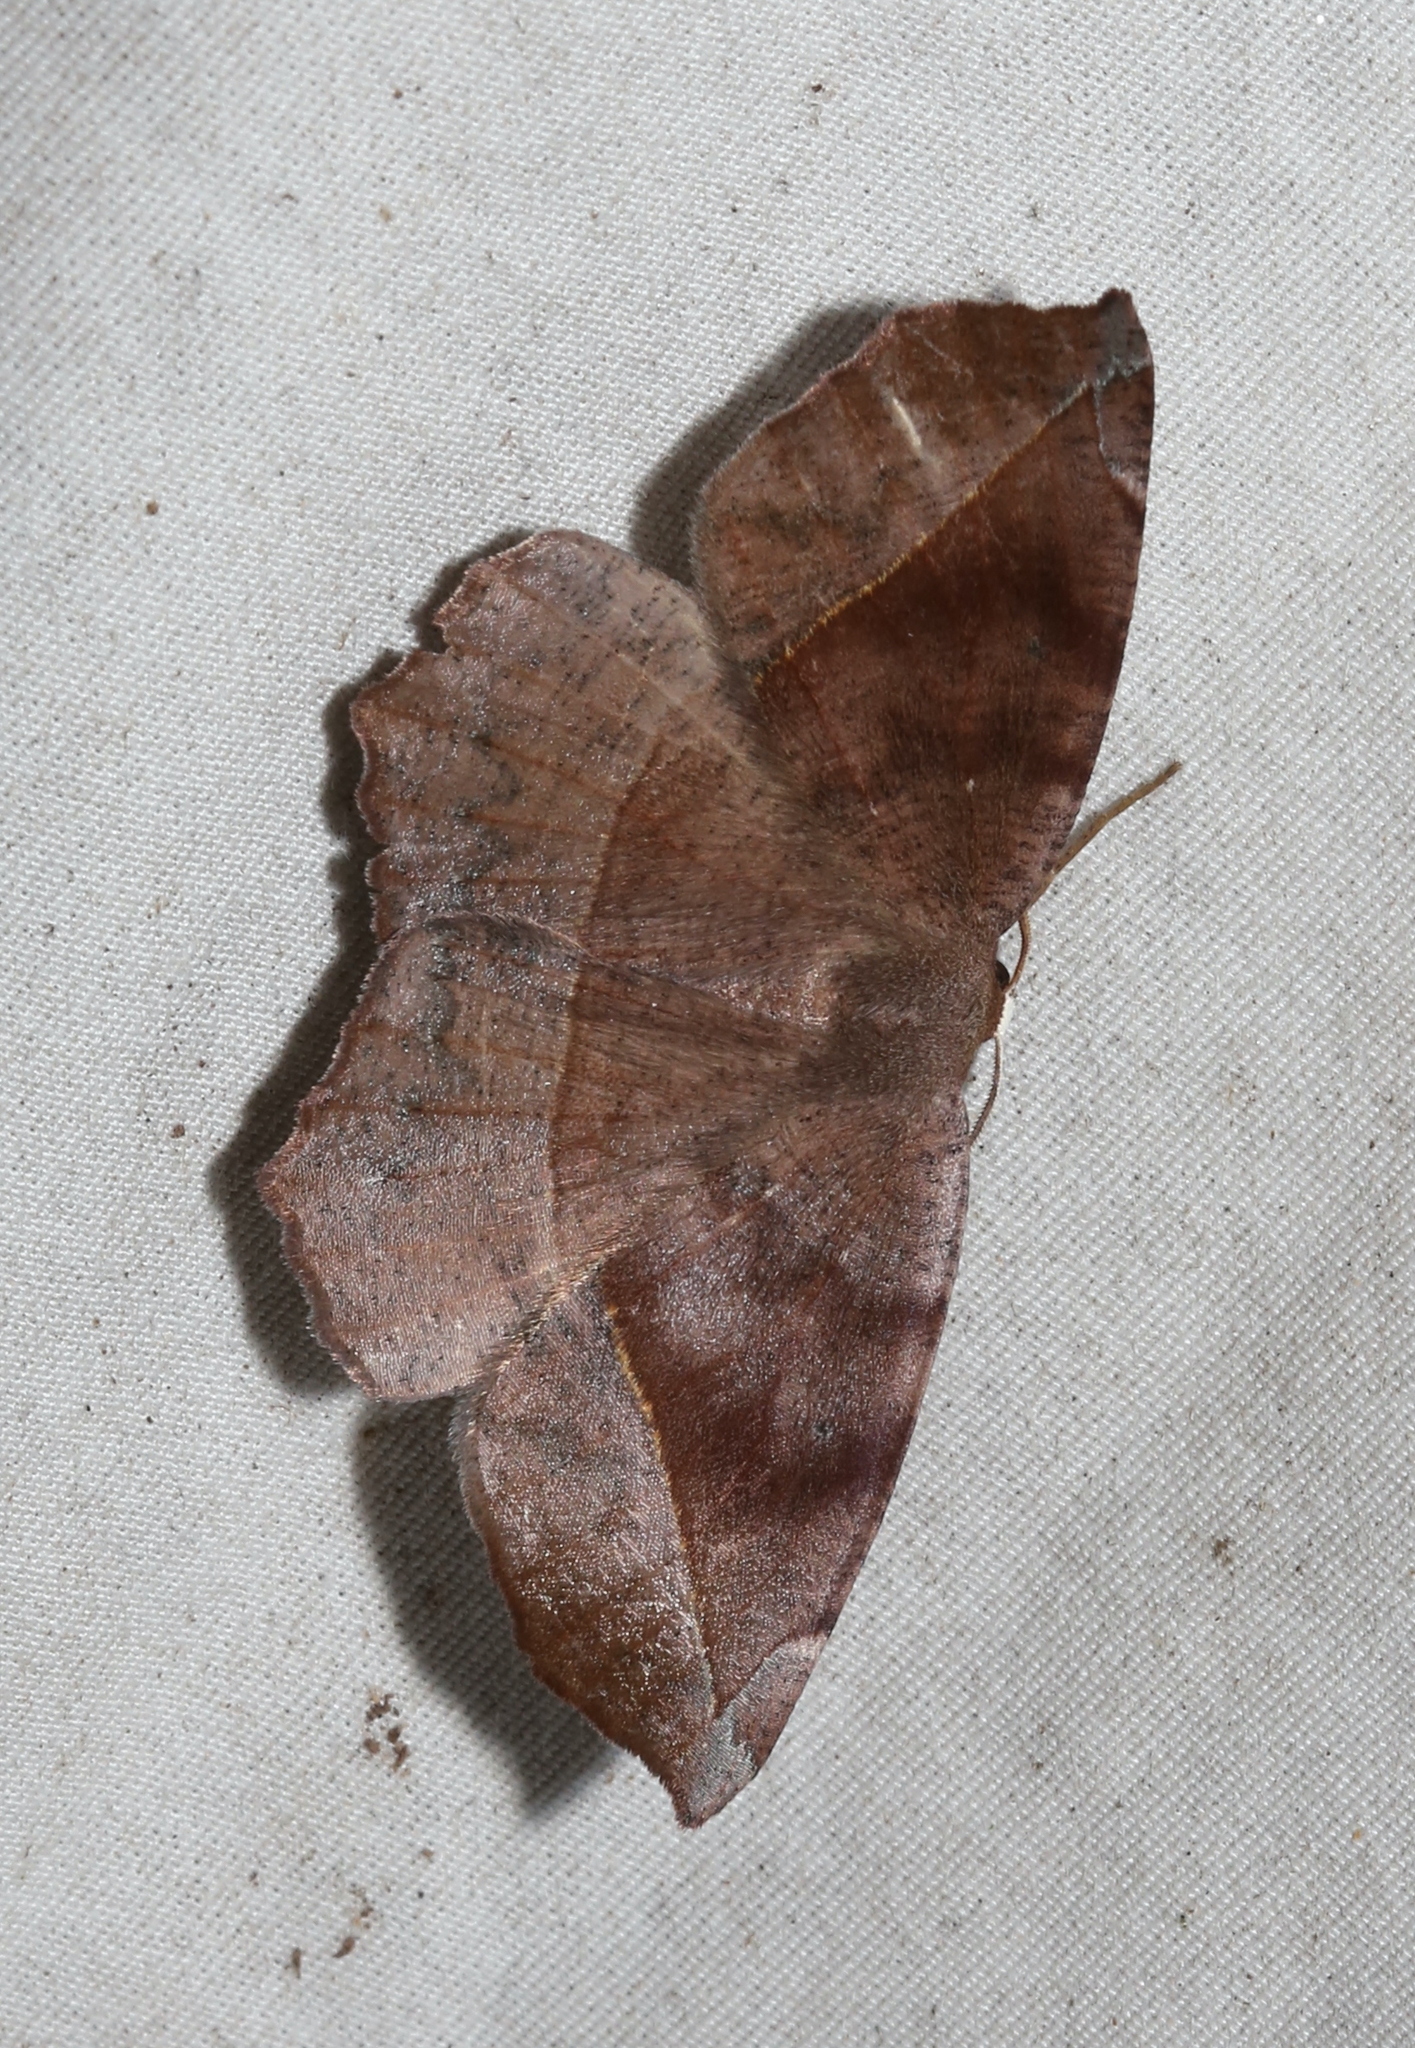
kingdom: Animalia
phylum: Arthropoda
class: Insecta
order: Lepidoptera
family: Geometridae
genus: Eutrapela
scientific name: Eutrapela clemataria
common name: Curved-toothed geometer
